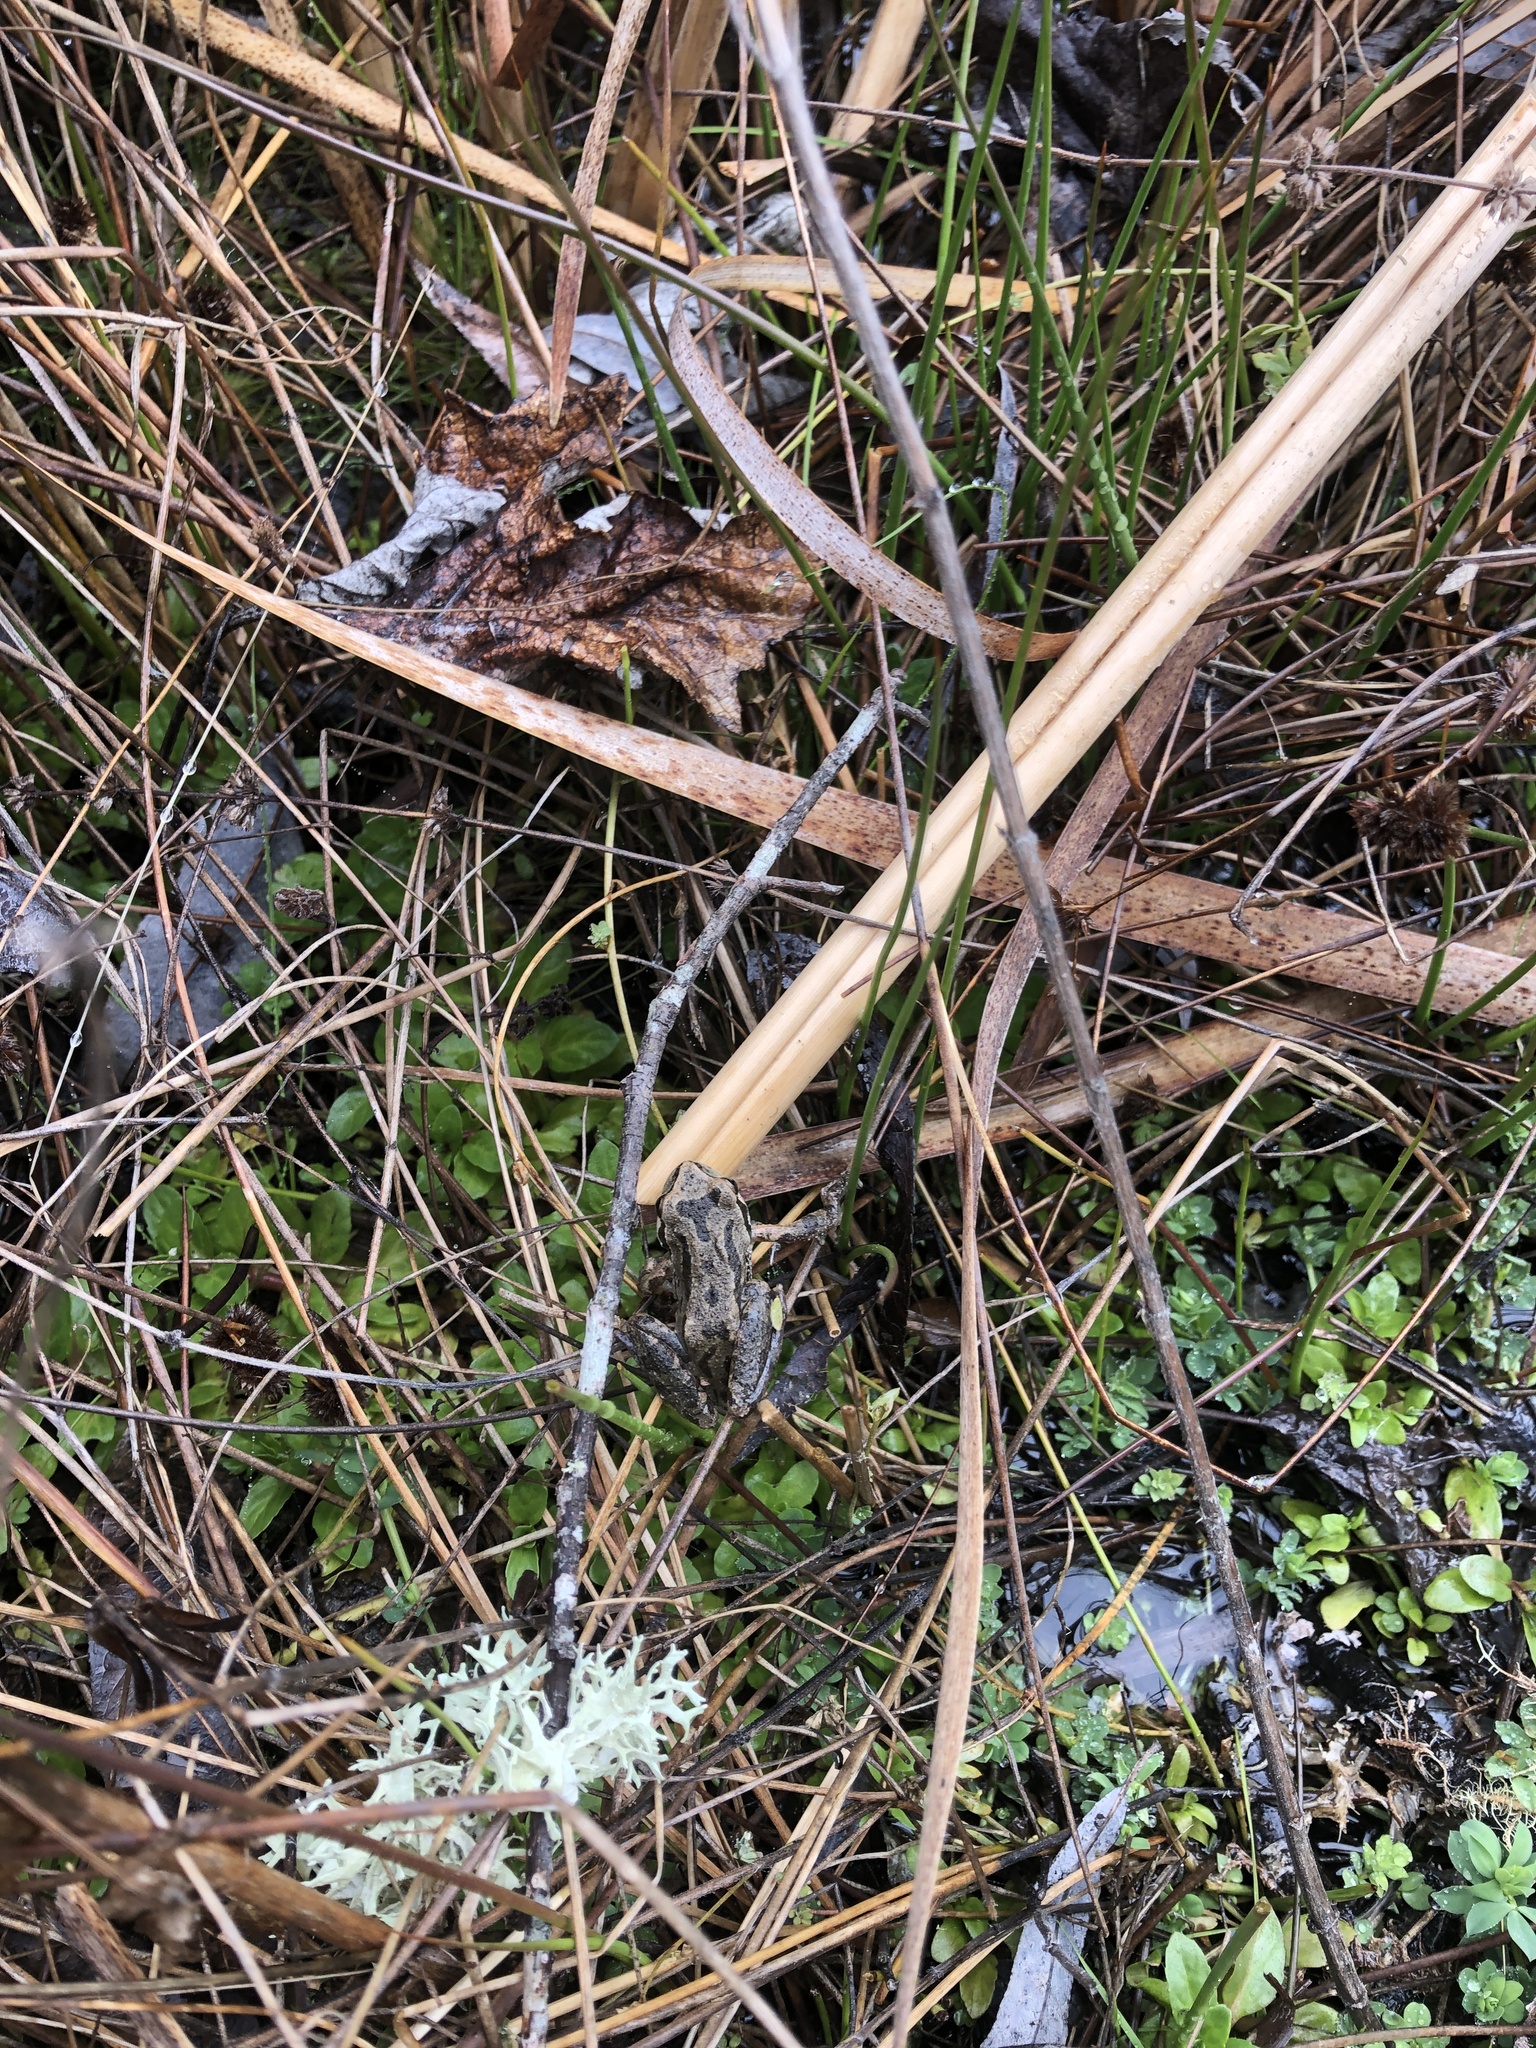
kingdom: Animalia
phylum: Chordata
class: Amphibia
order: Anura
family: Hylidae
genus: Pseudacris
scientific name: Pseudacris regilla
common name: Pacific chorus frog
